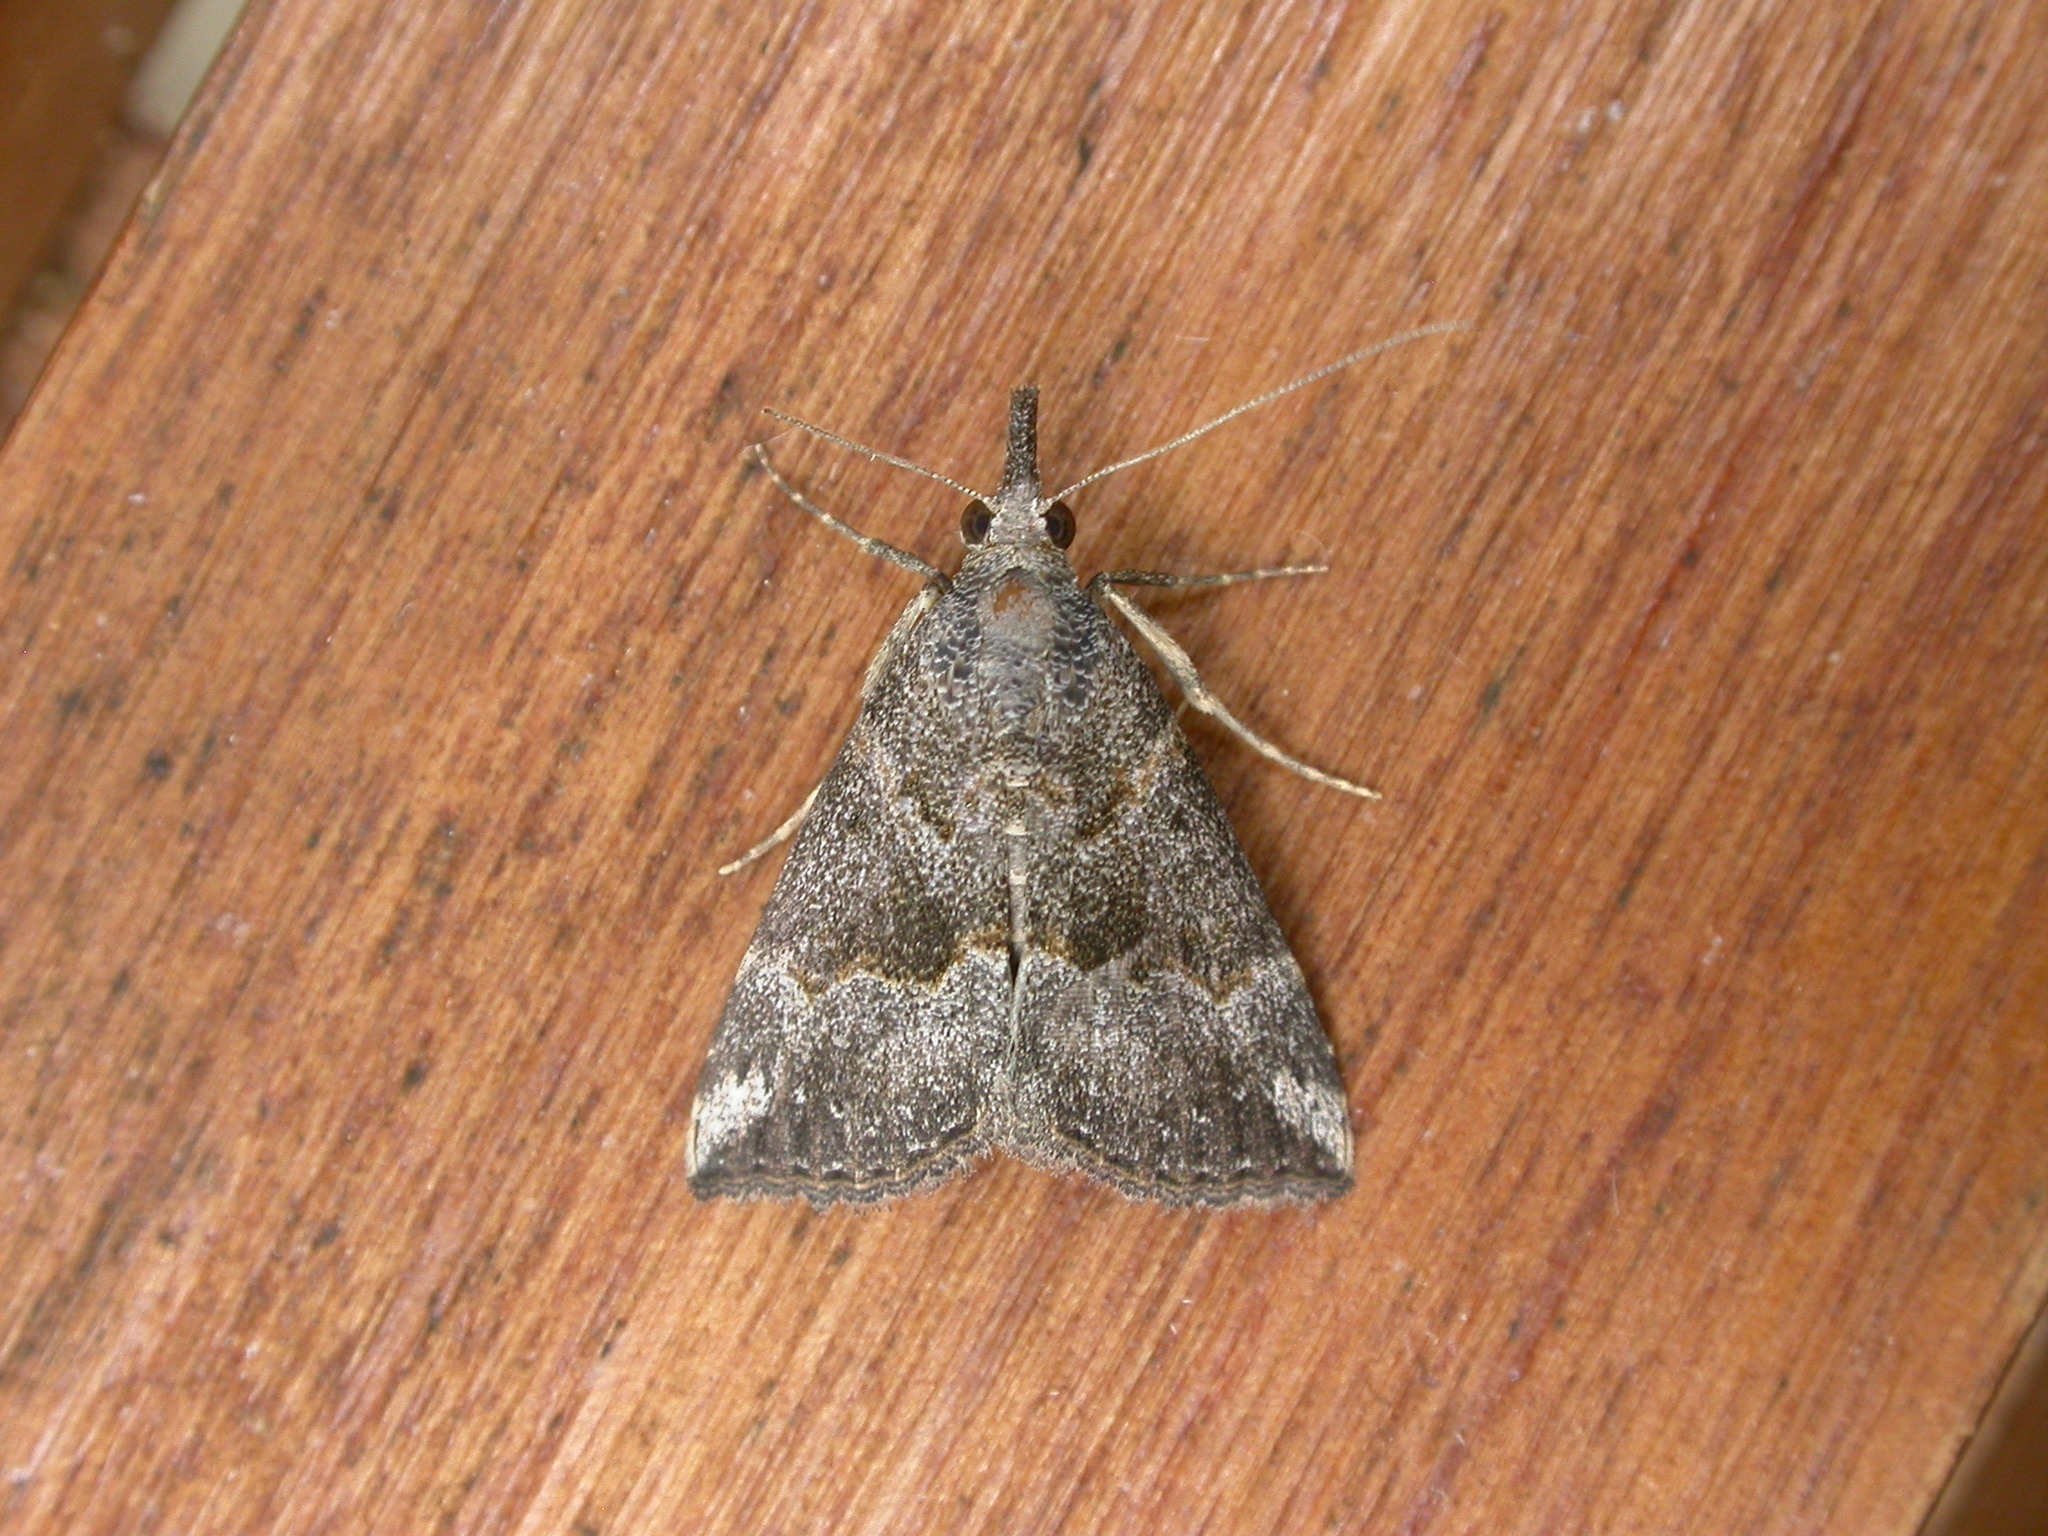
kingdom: Animalia
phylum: Arthropoda
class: Insecta
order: Lepidoptera
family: Erebidae
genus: Hypena
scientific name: Hypena commixtalis
